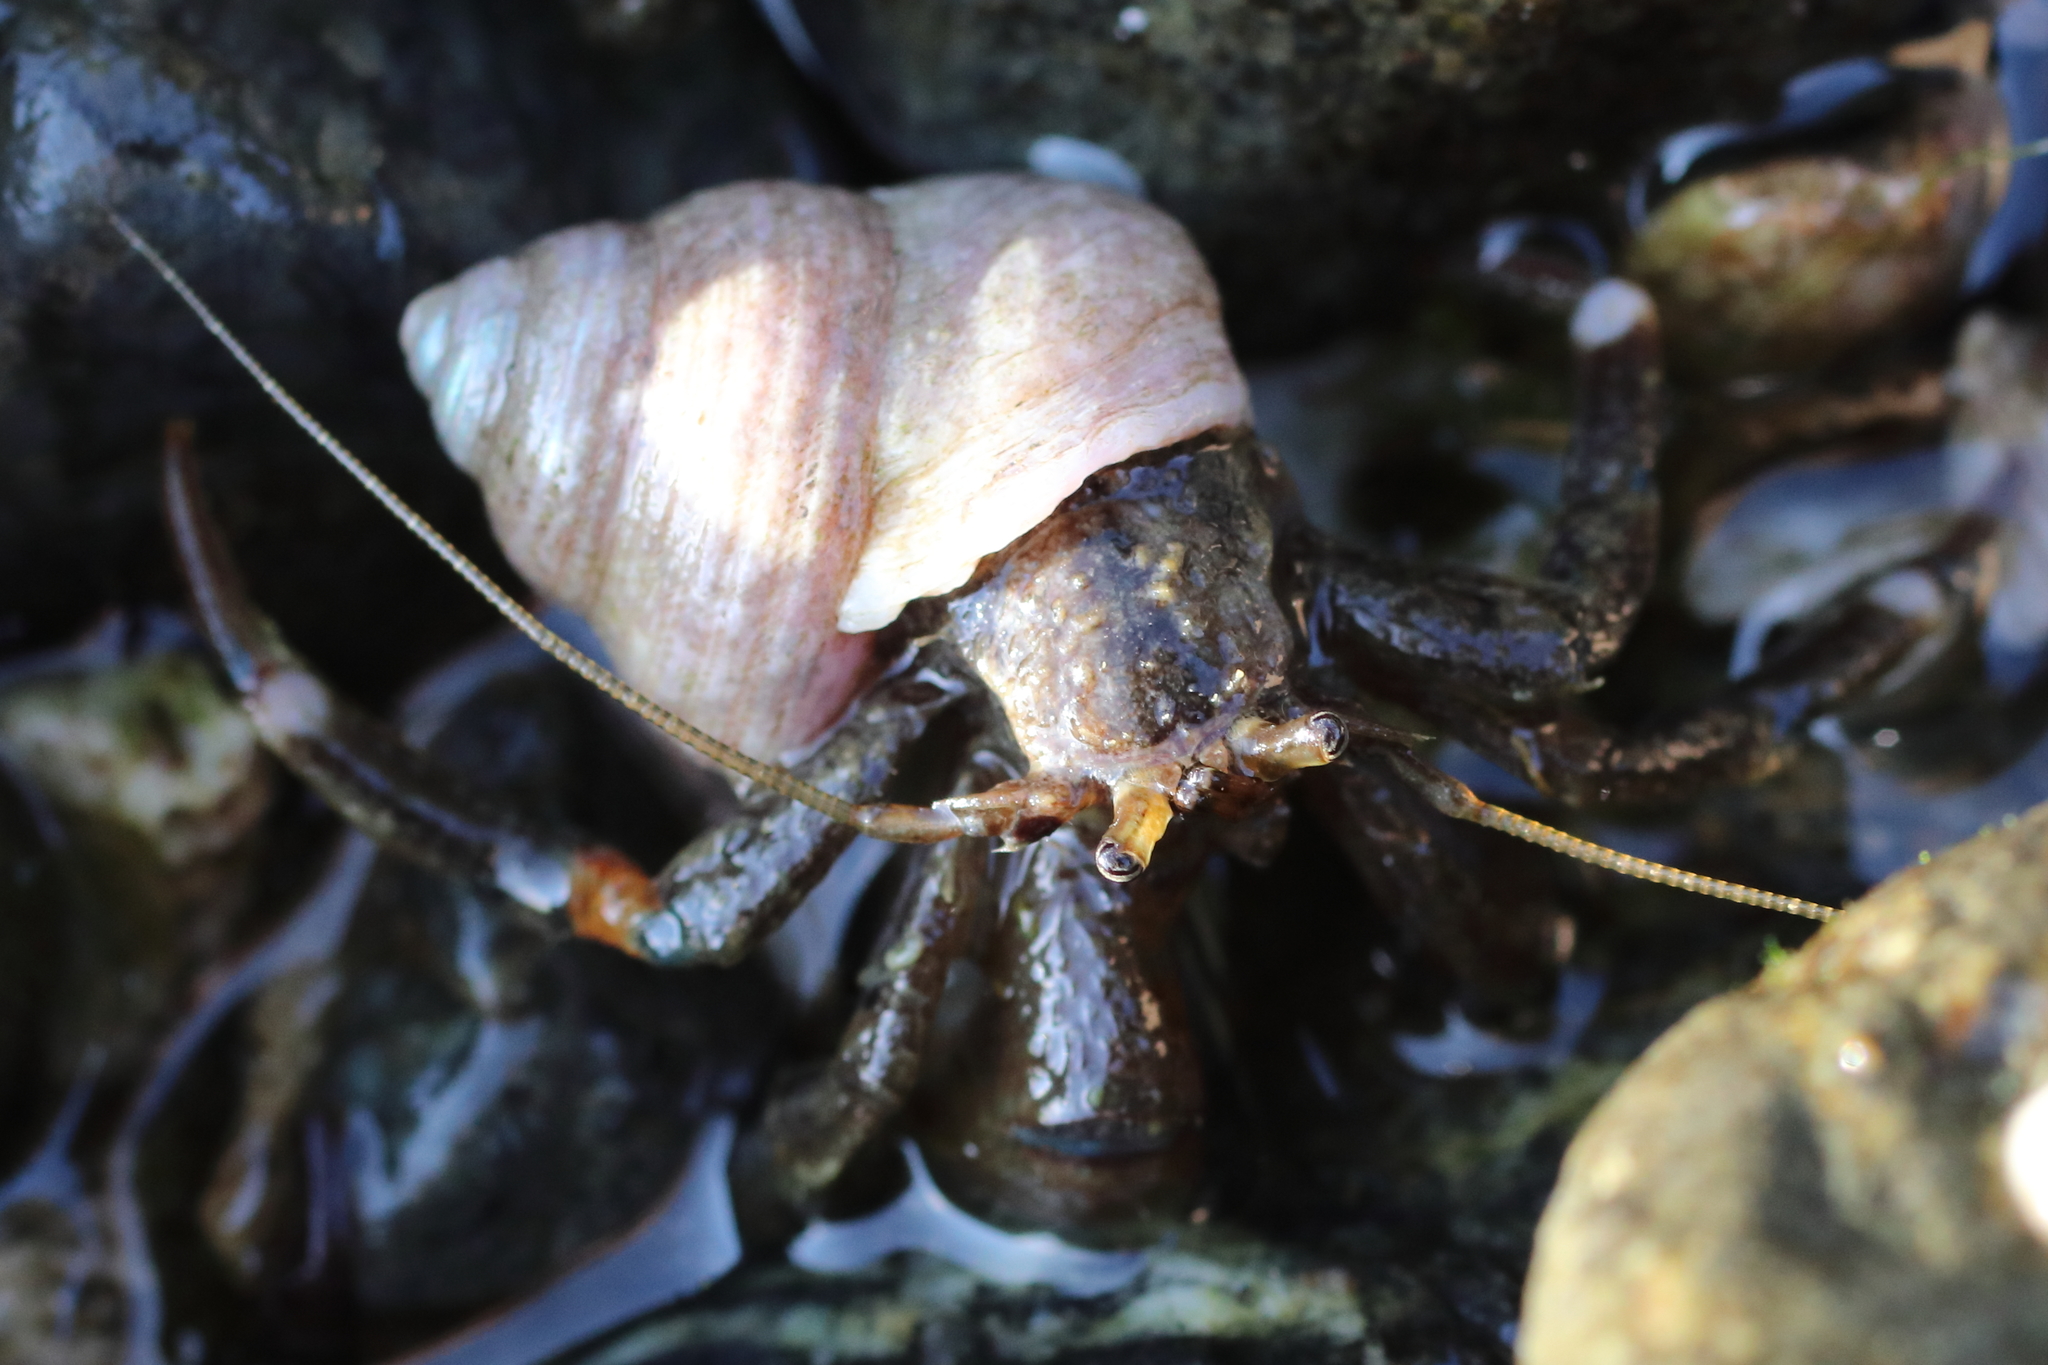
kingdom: Animalia
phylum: Arthropoda
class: Malacostraca
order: Decapoda
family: Paguridae
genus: Pagurus
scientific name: Pagurus hirsutiusculus
